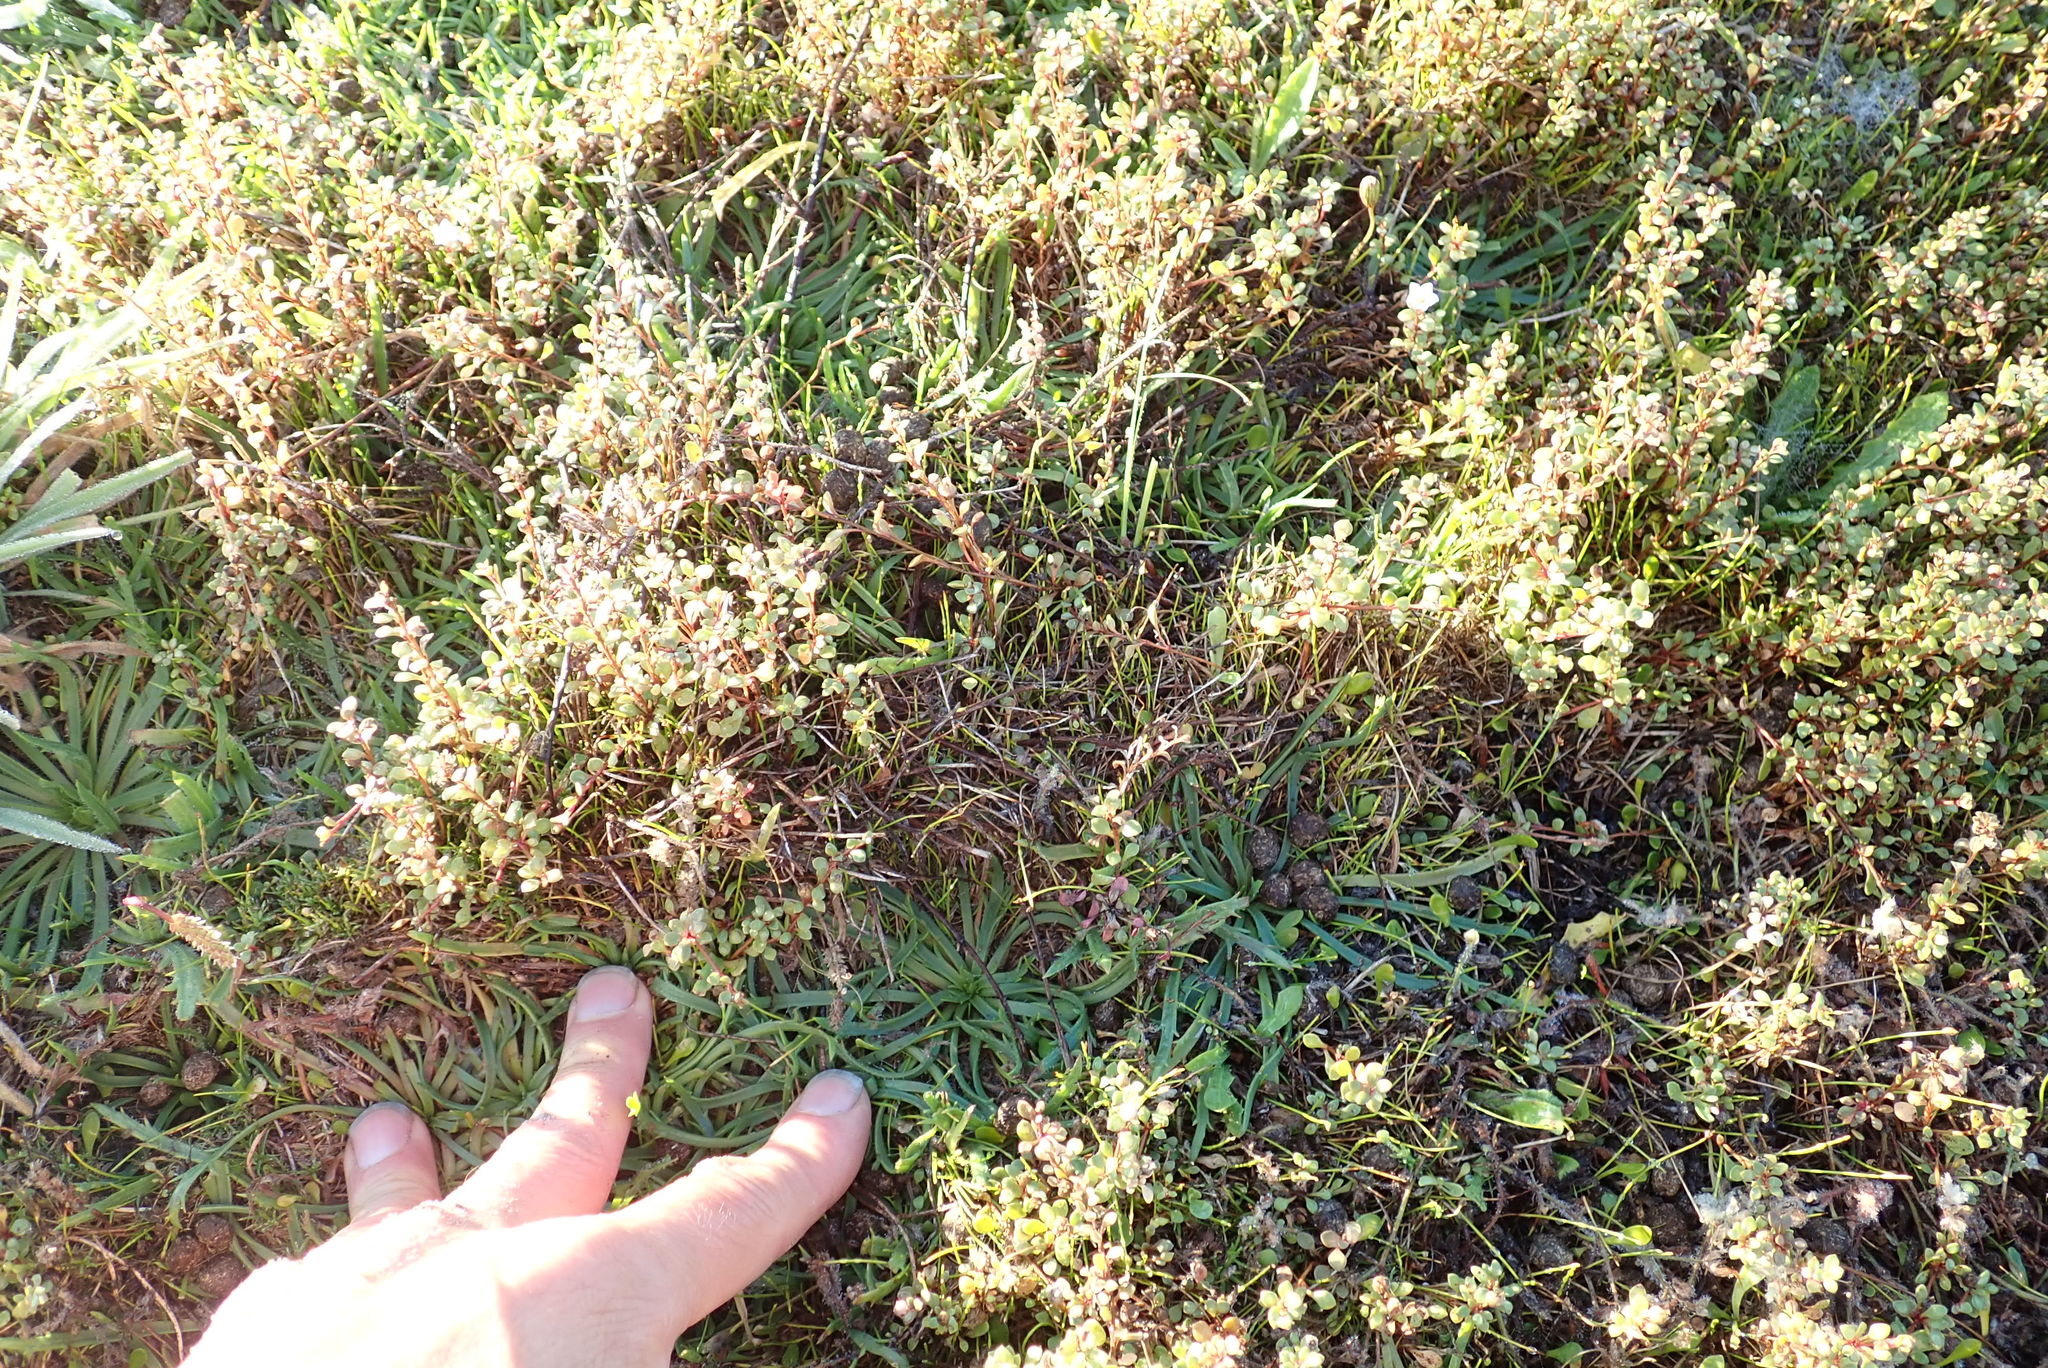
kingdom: Plantae
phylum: Tracheophyta
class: Magnoliopsida
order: Lamiales
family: Plantaginaceae
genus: Plantago
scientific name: Plantago coronopus
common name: Buck's-horn plantain
